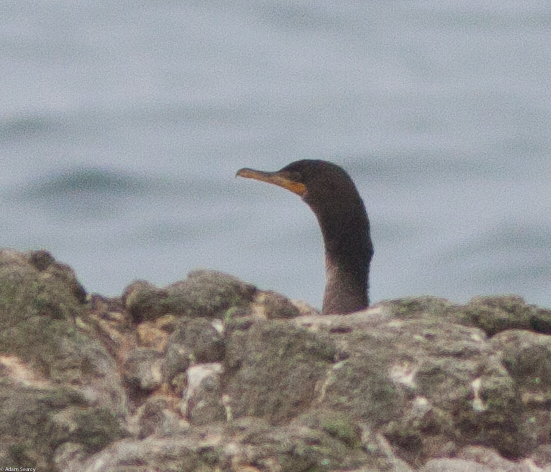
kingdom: Animalia
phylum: Chordata
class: Aves
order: Suliformes
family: Phalacrocoracidae
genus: Phalacrocorax
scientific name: Phalacrocorax auritus
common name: Double-crested cormorant
